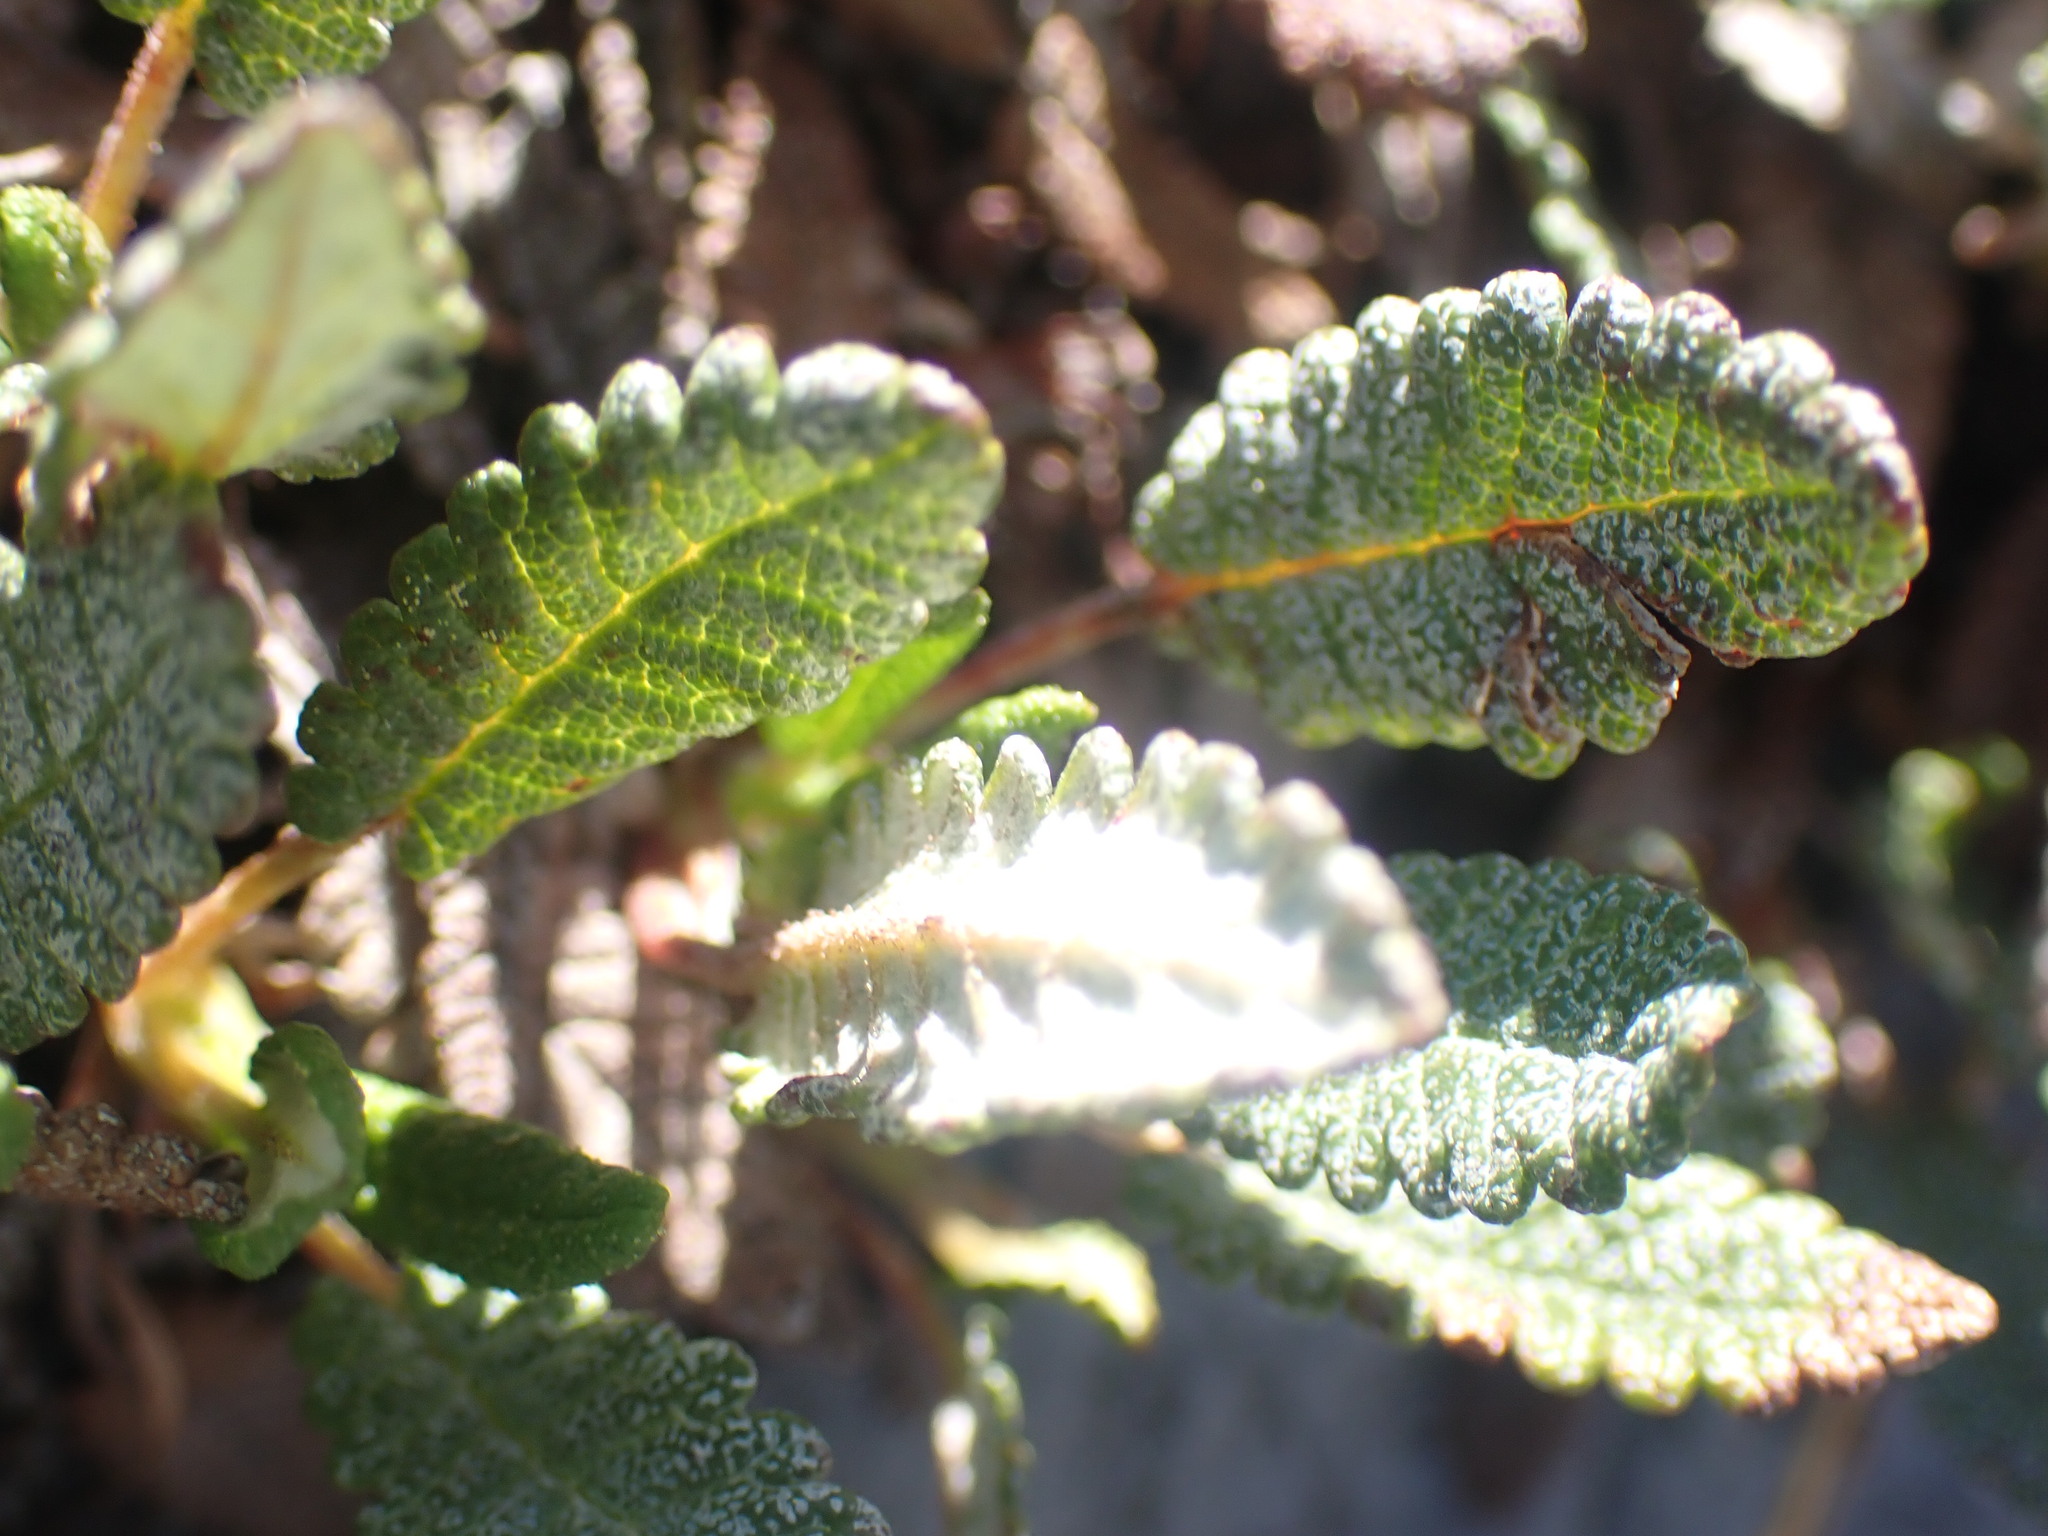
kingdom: Plantae
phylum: Tracheophyta
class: Magnoliopsida
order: Rosales
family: Rosaceae
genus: Dryas
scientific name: Dryas octopetala
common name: Eight-petal mountain-avens
